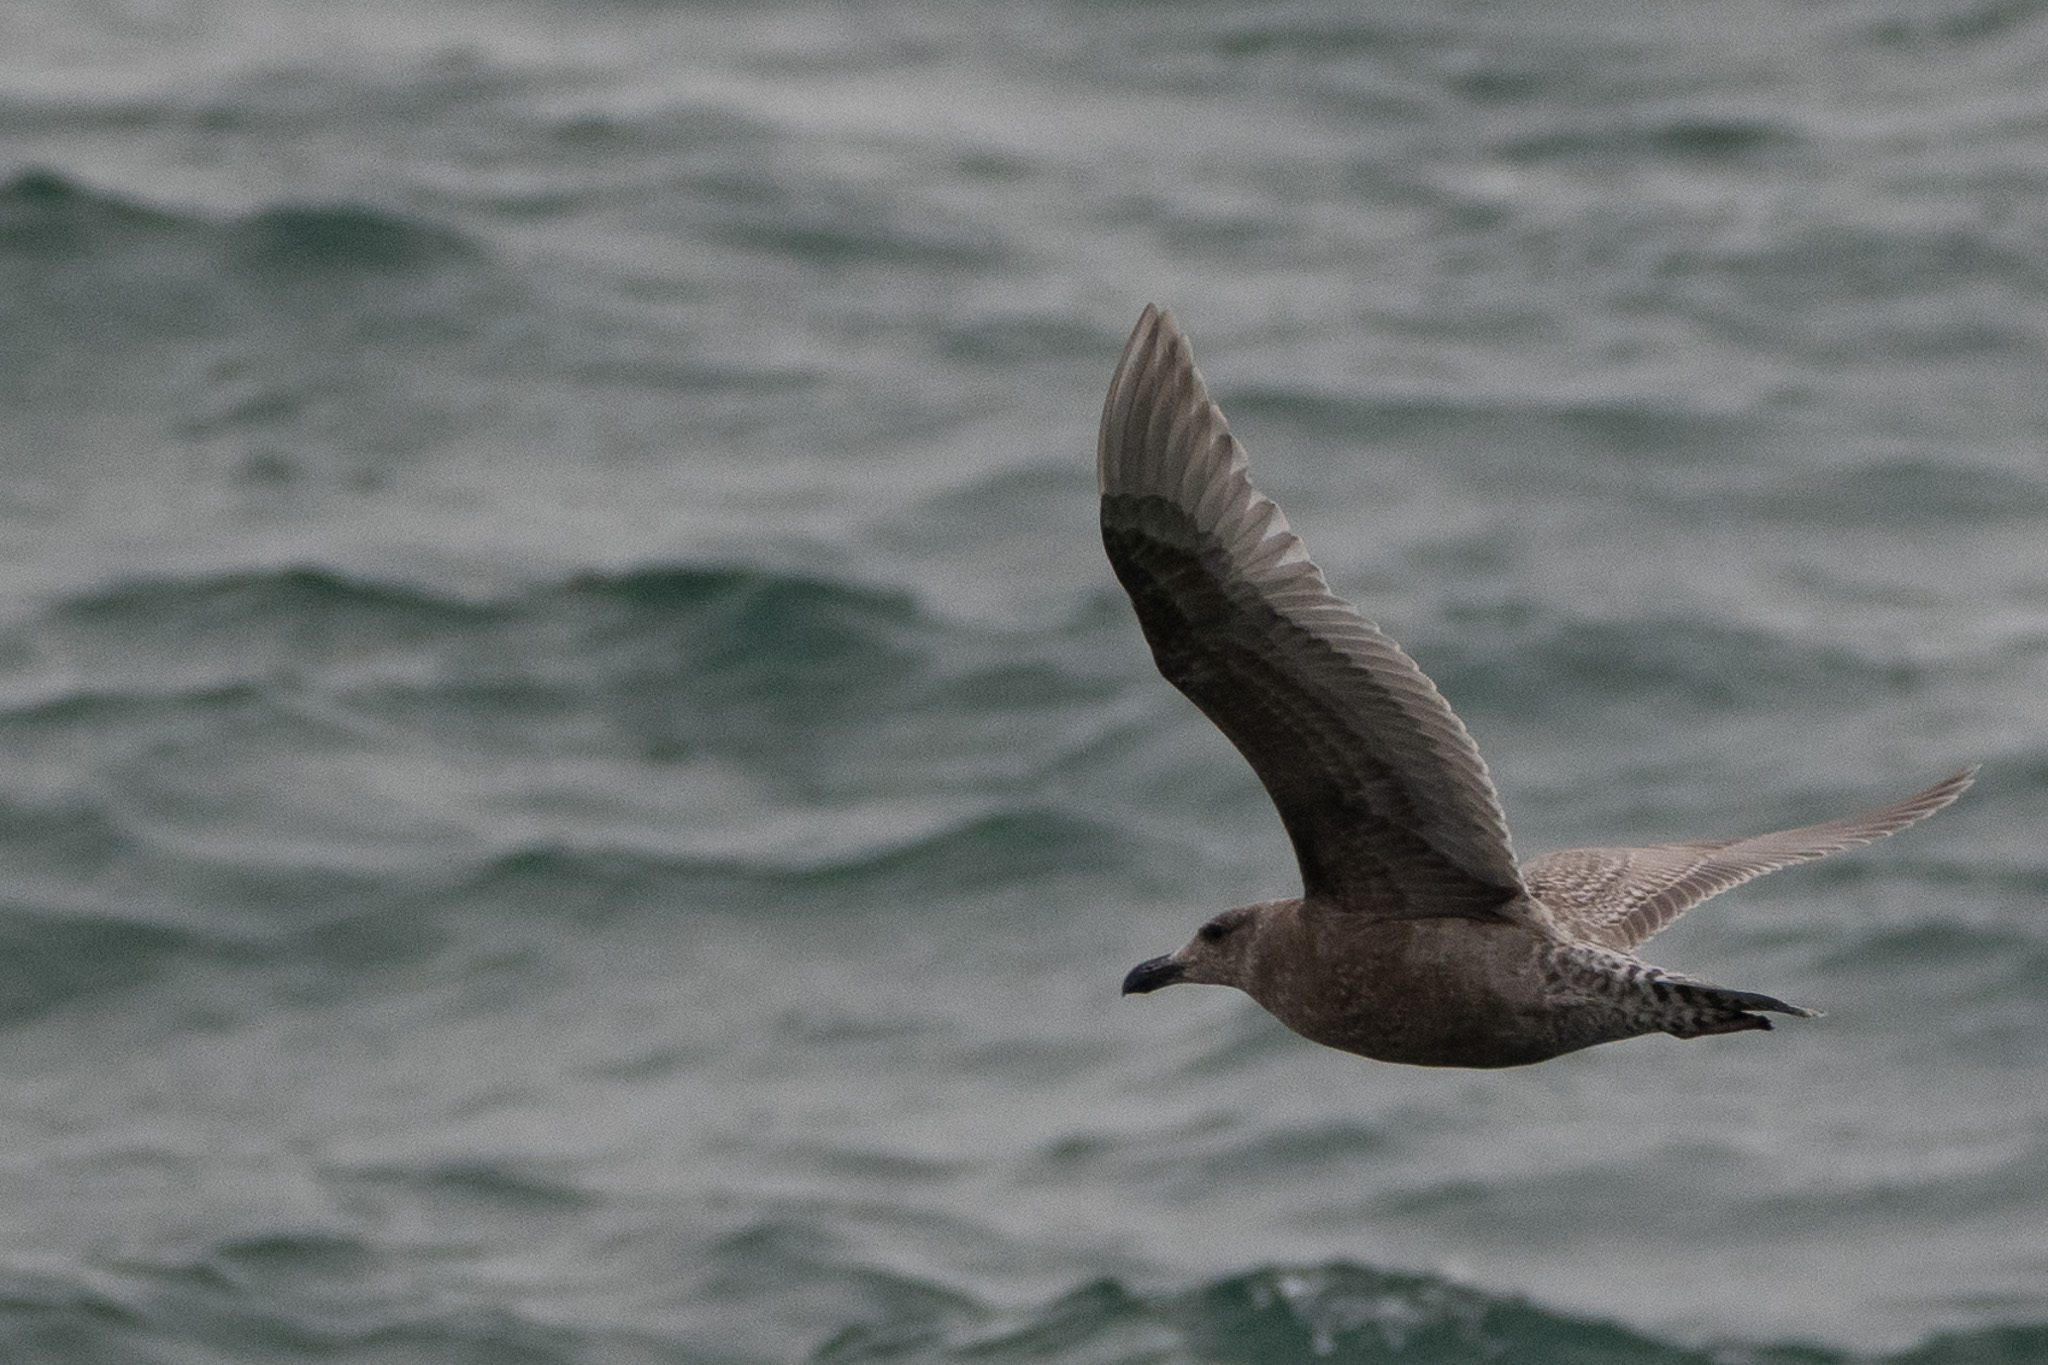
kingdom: Animalia
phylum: Chordata
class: Aves
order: Charadriiformes
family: Laridae
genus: Larus
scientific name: Larus glaucescens
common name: Glaucous-winged gull
